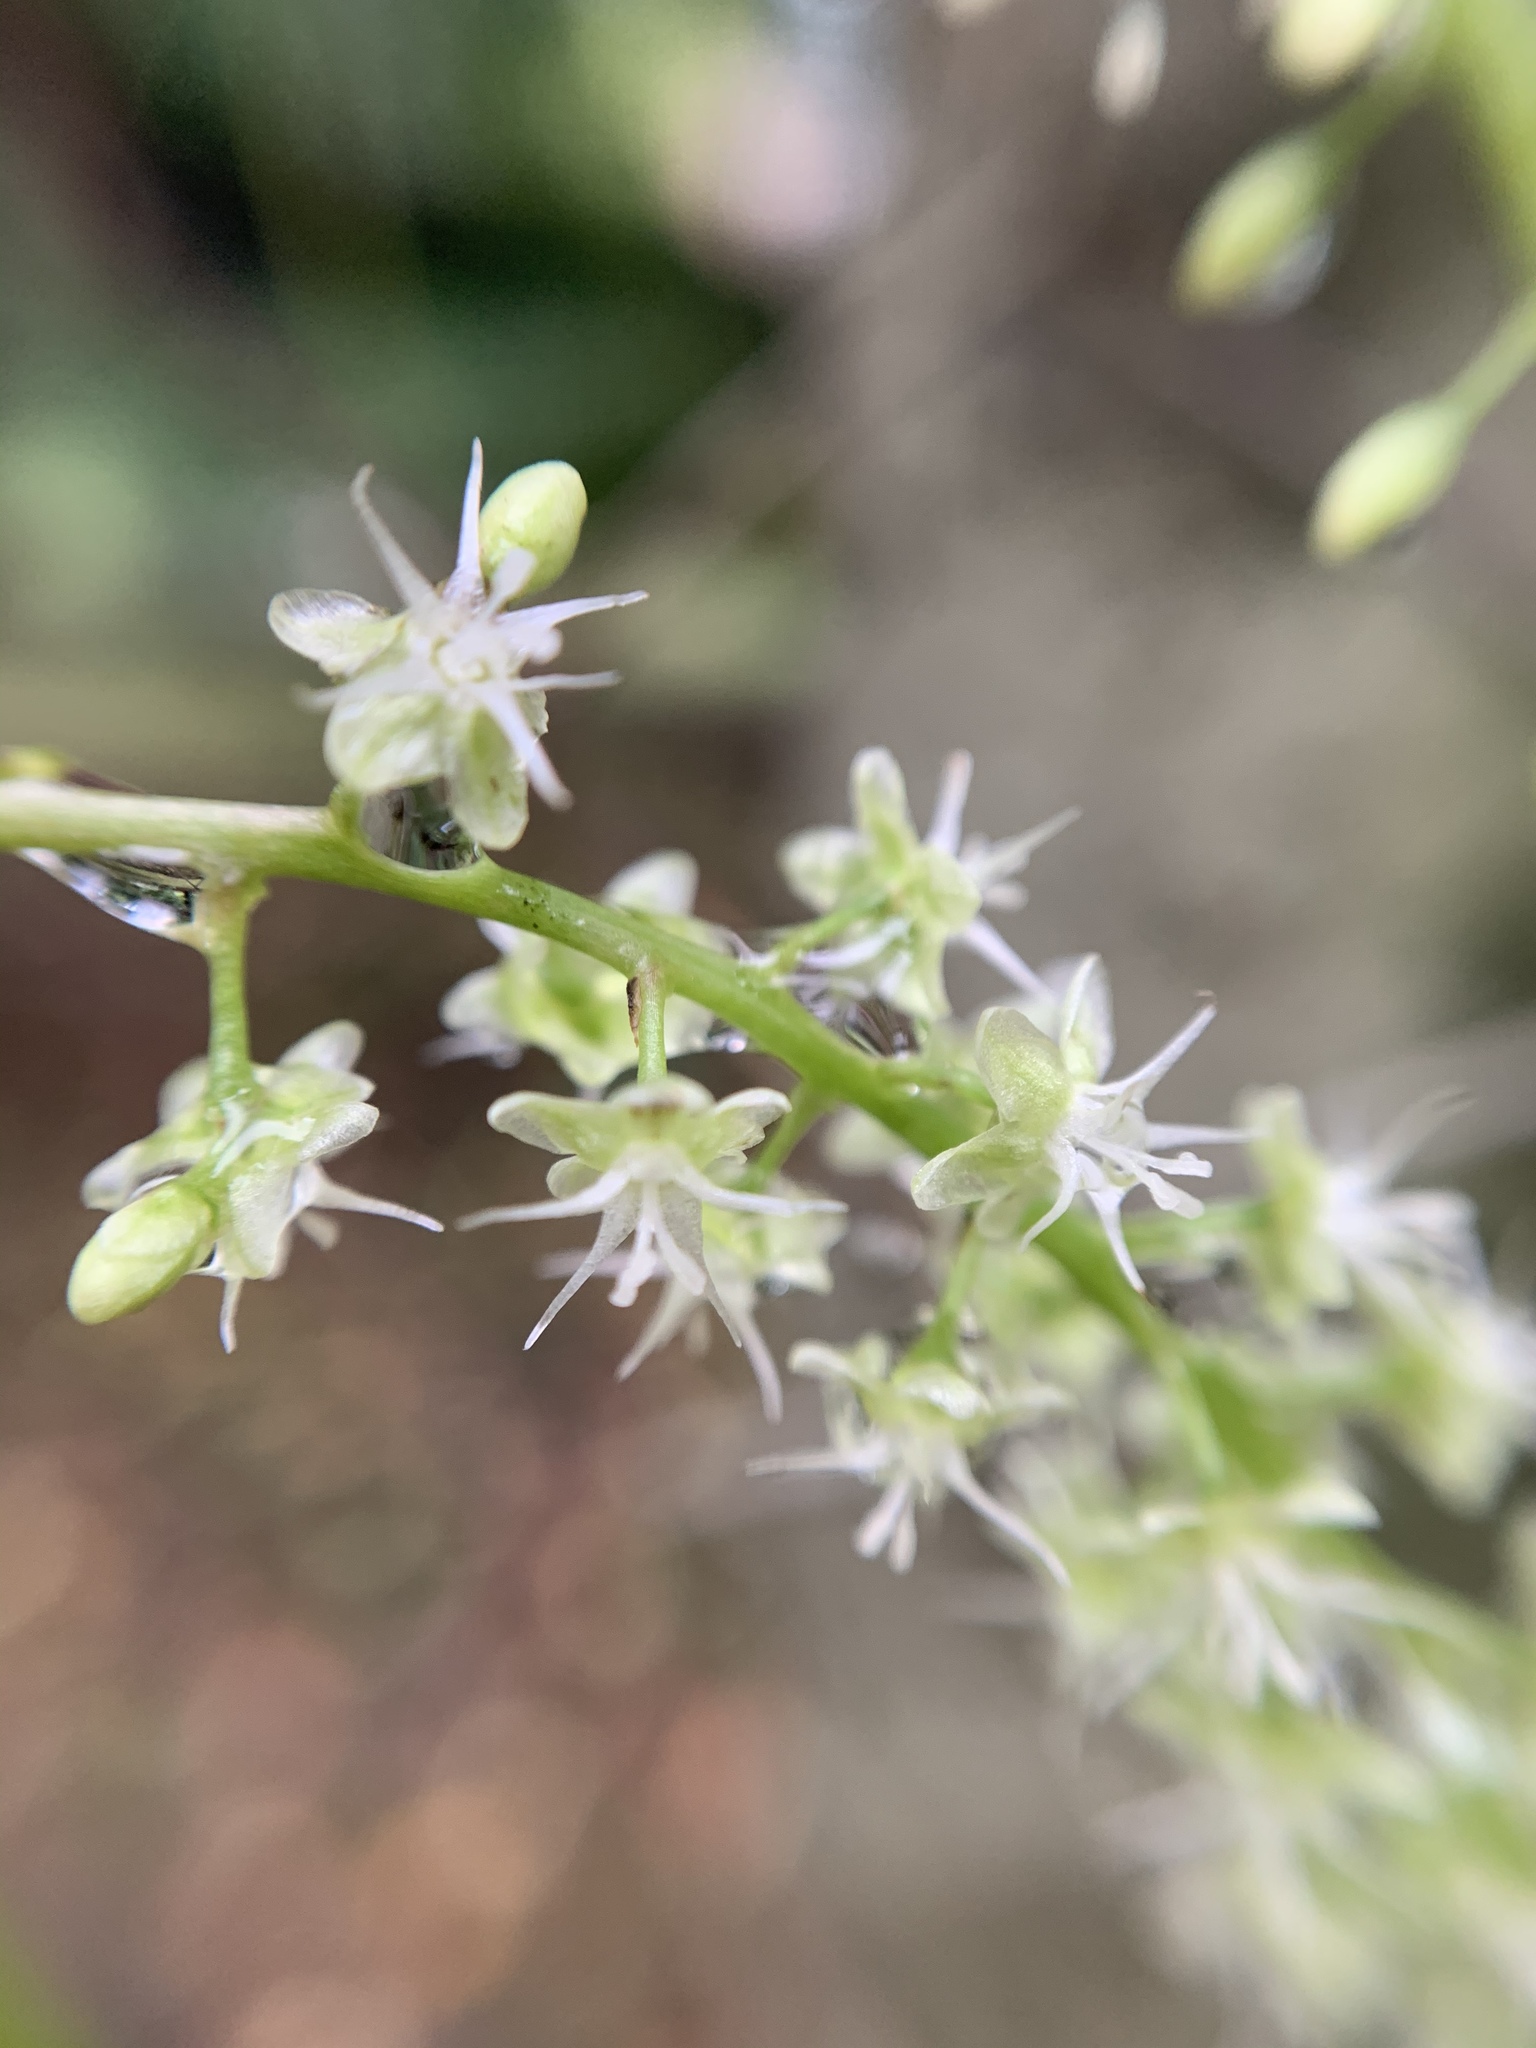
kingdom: Plantae
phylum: Tracheophyta
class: Magnoliopsida
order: Caryophyllales
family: Basellaceae
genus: Anredera
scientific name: Anredera cordifolia
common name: Heartleaf madeiravine
